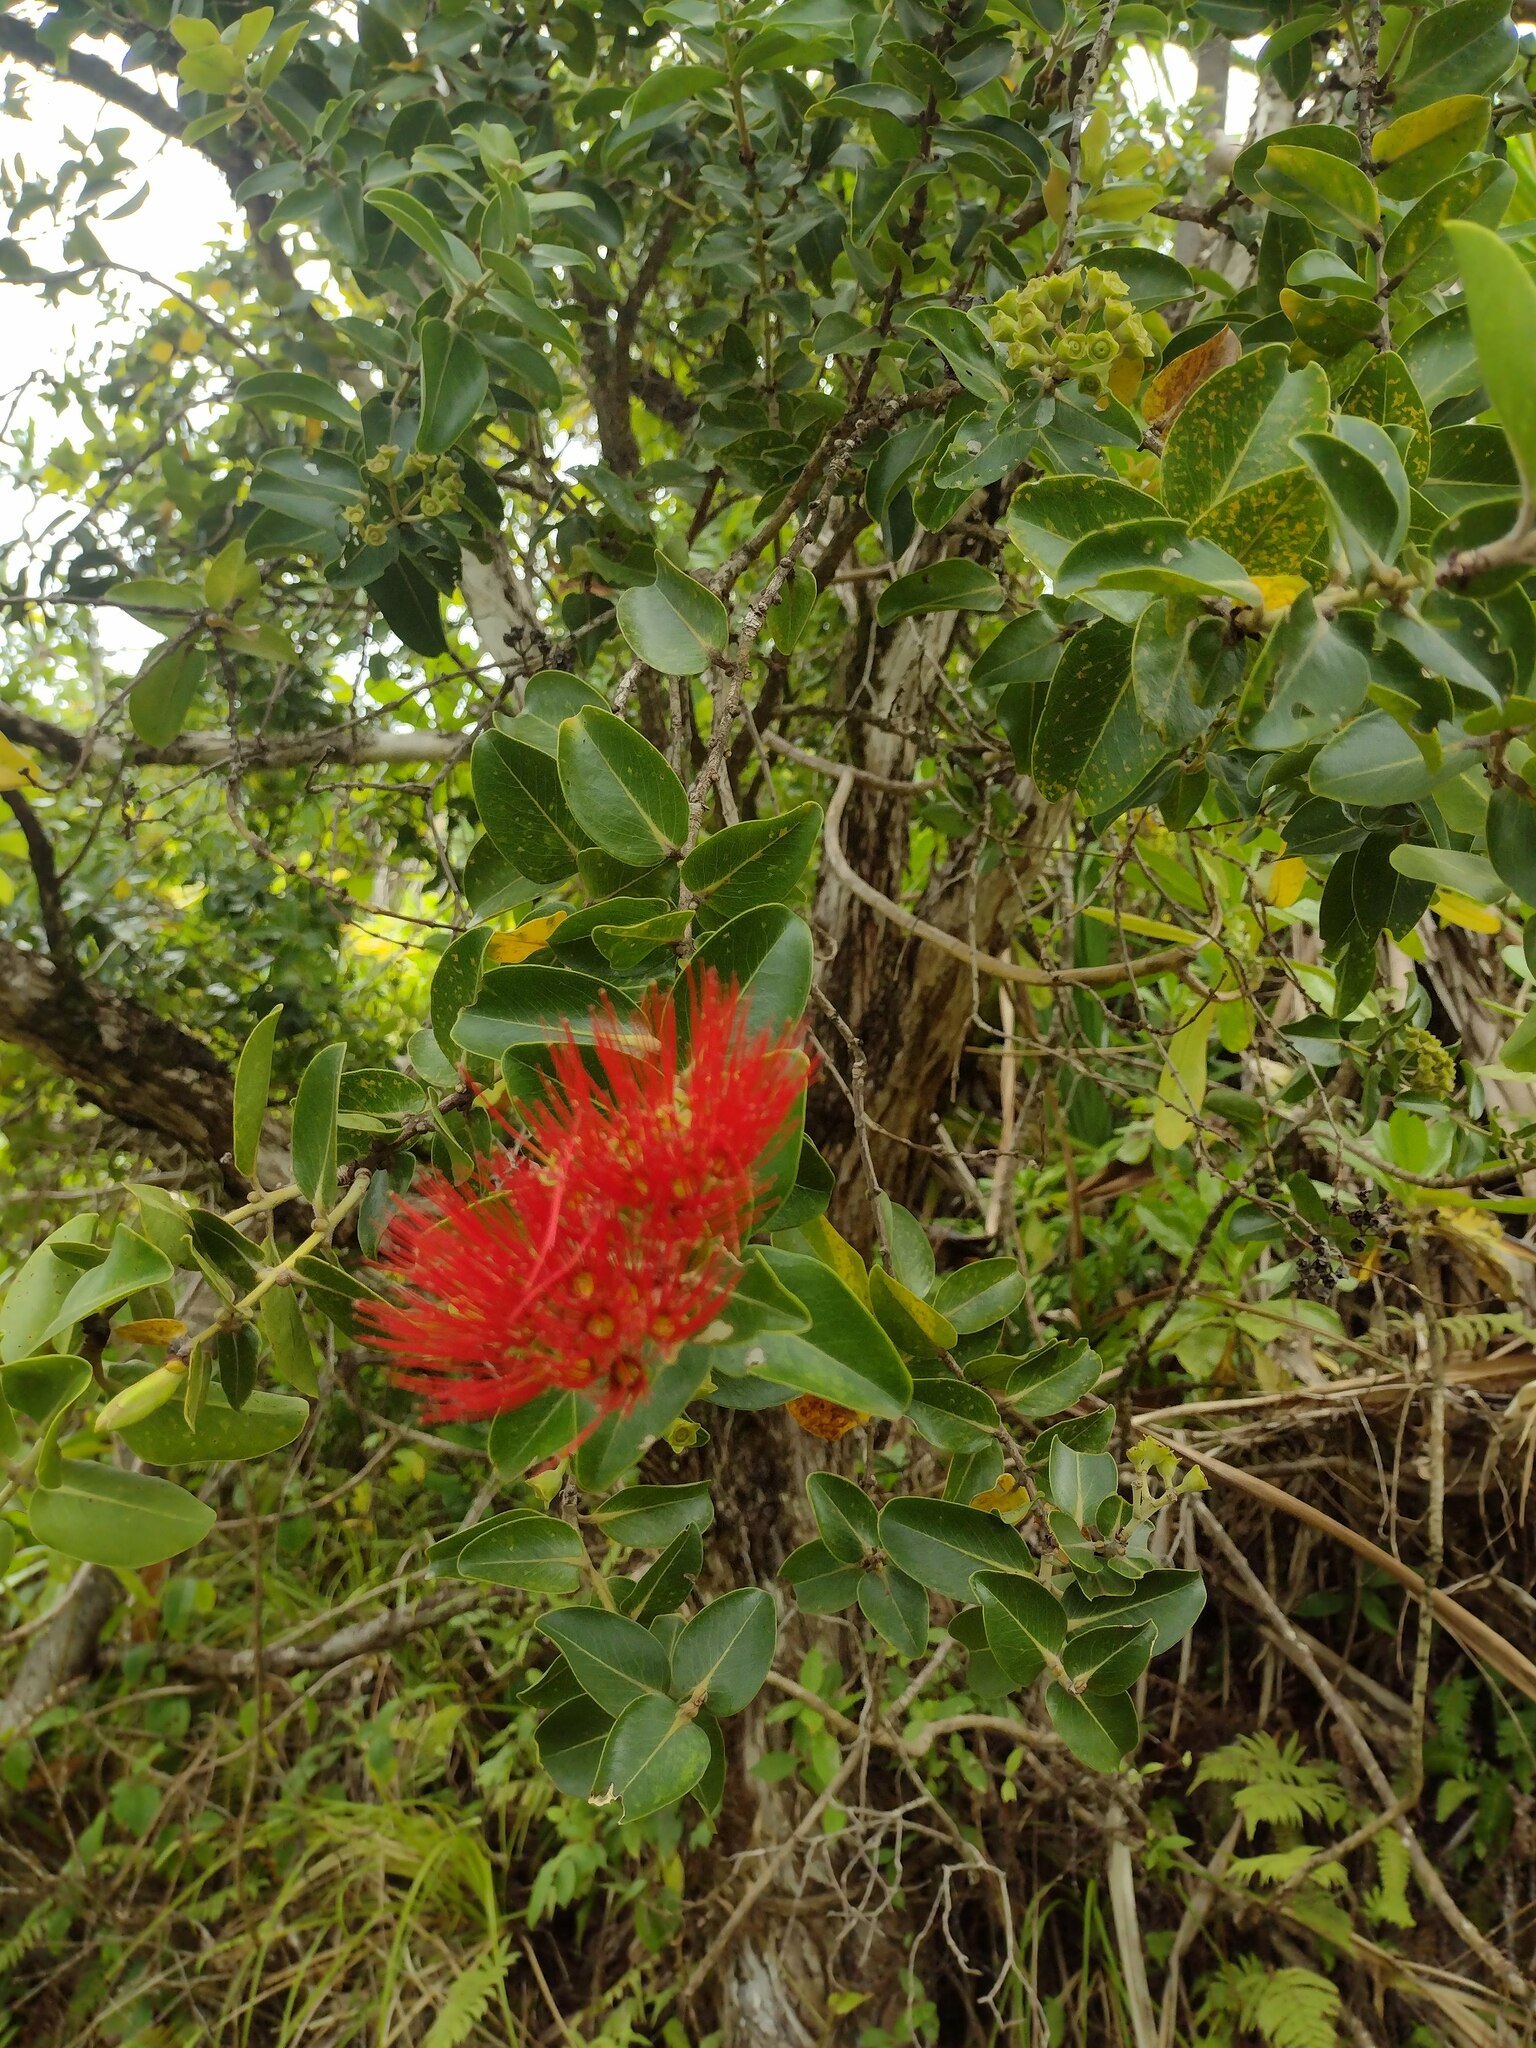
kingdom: Plantae
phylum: Tracheophyta
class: Magnoliopsida
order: Myrtales
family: Myrtaceae
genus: Metrosideros
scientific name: Metrosideros polymorpha
